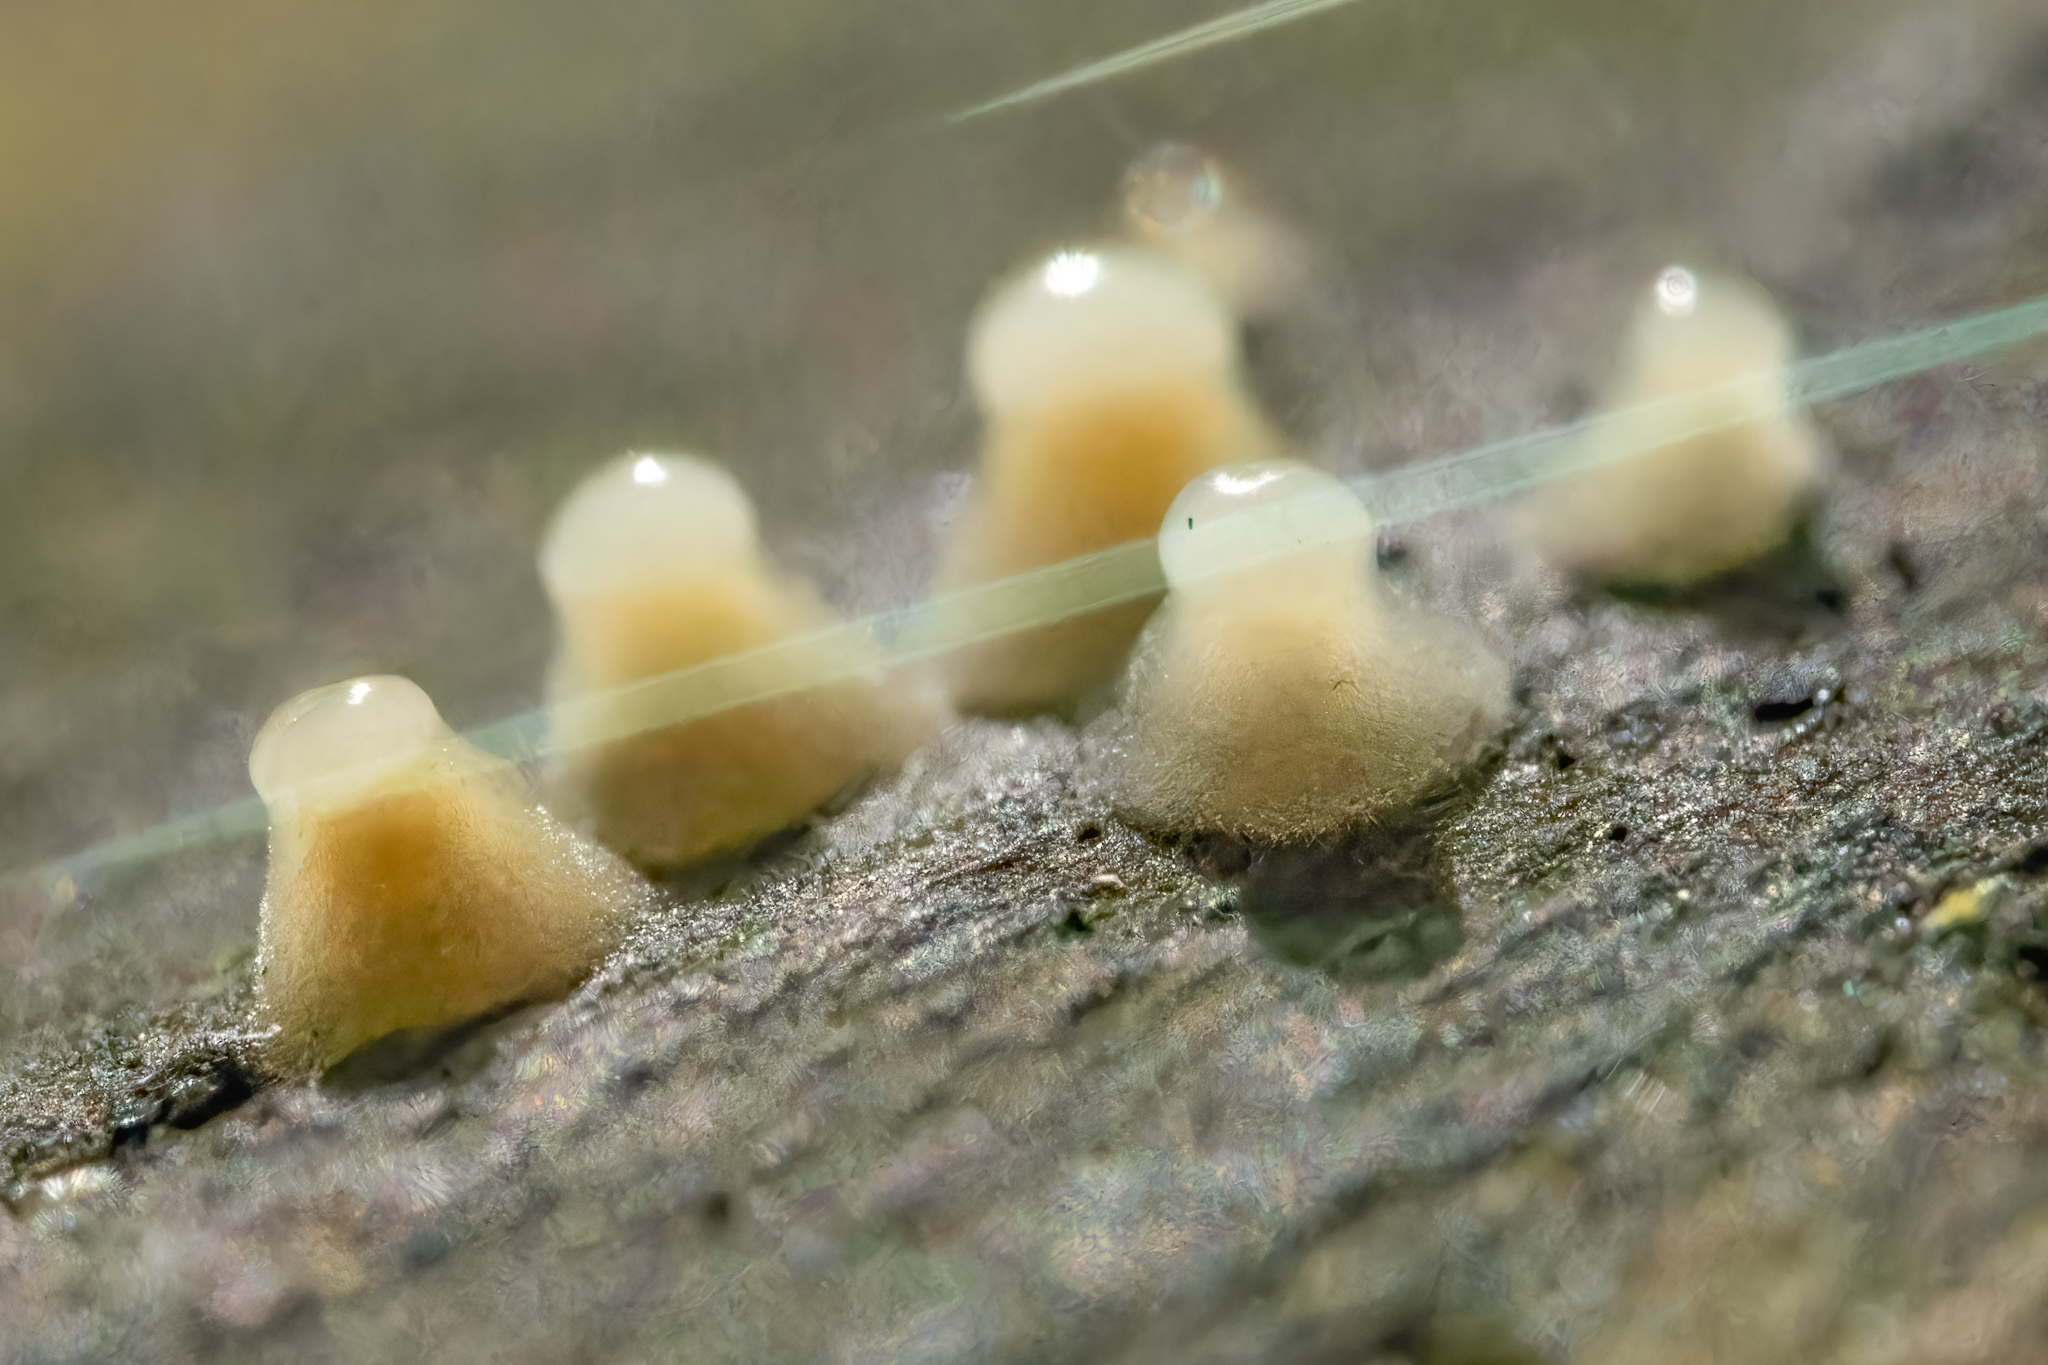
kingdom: Fungi
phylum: Basidiomycota
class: Atractiellomycetes
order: Atractiellales
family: Phleogenaceae
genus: Helicogloea
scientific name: Helicogloea compressa
